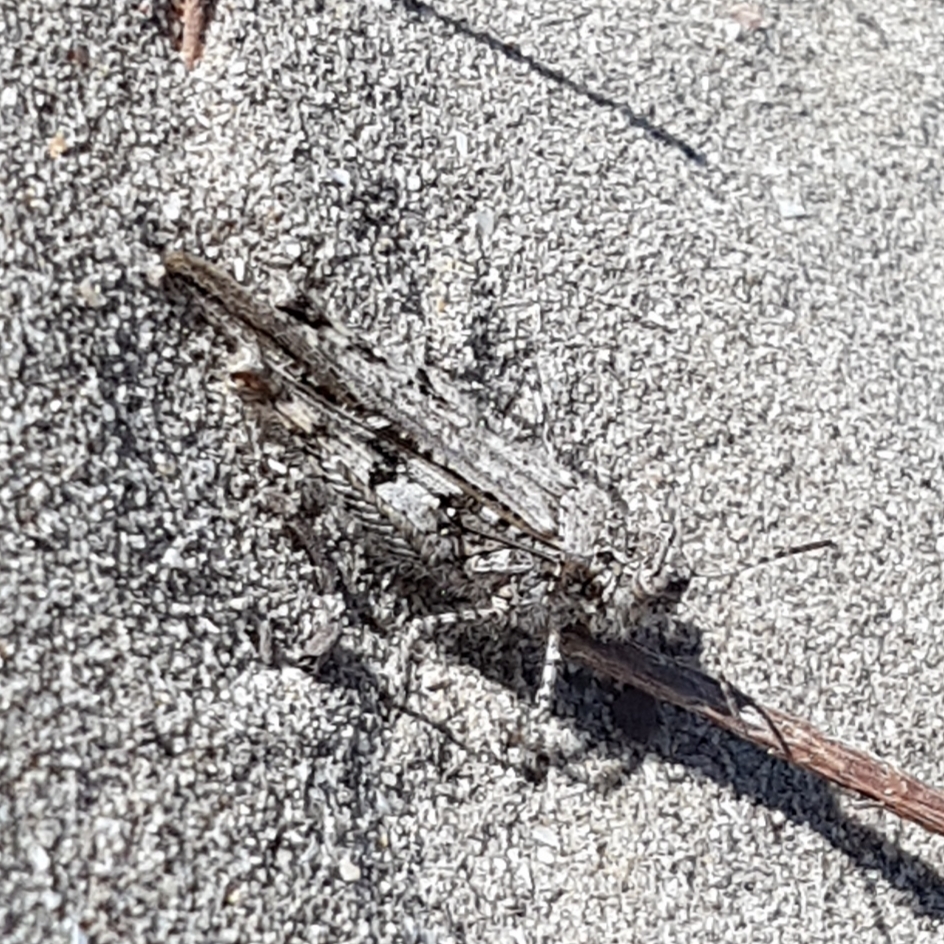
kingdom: Animalia
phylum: Arthropoda
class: Insecta
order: Orthoptera
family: Acrididae
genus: Acrotylus
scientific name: Acrotylus insubricus
